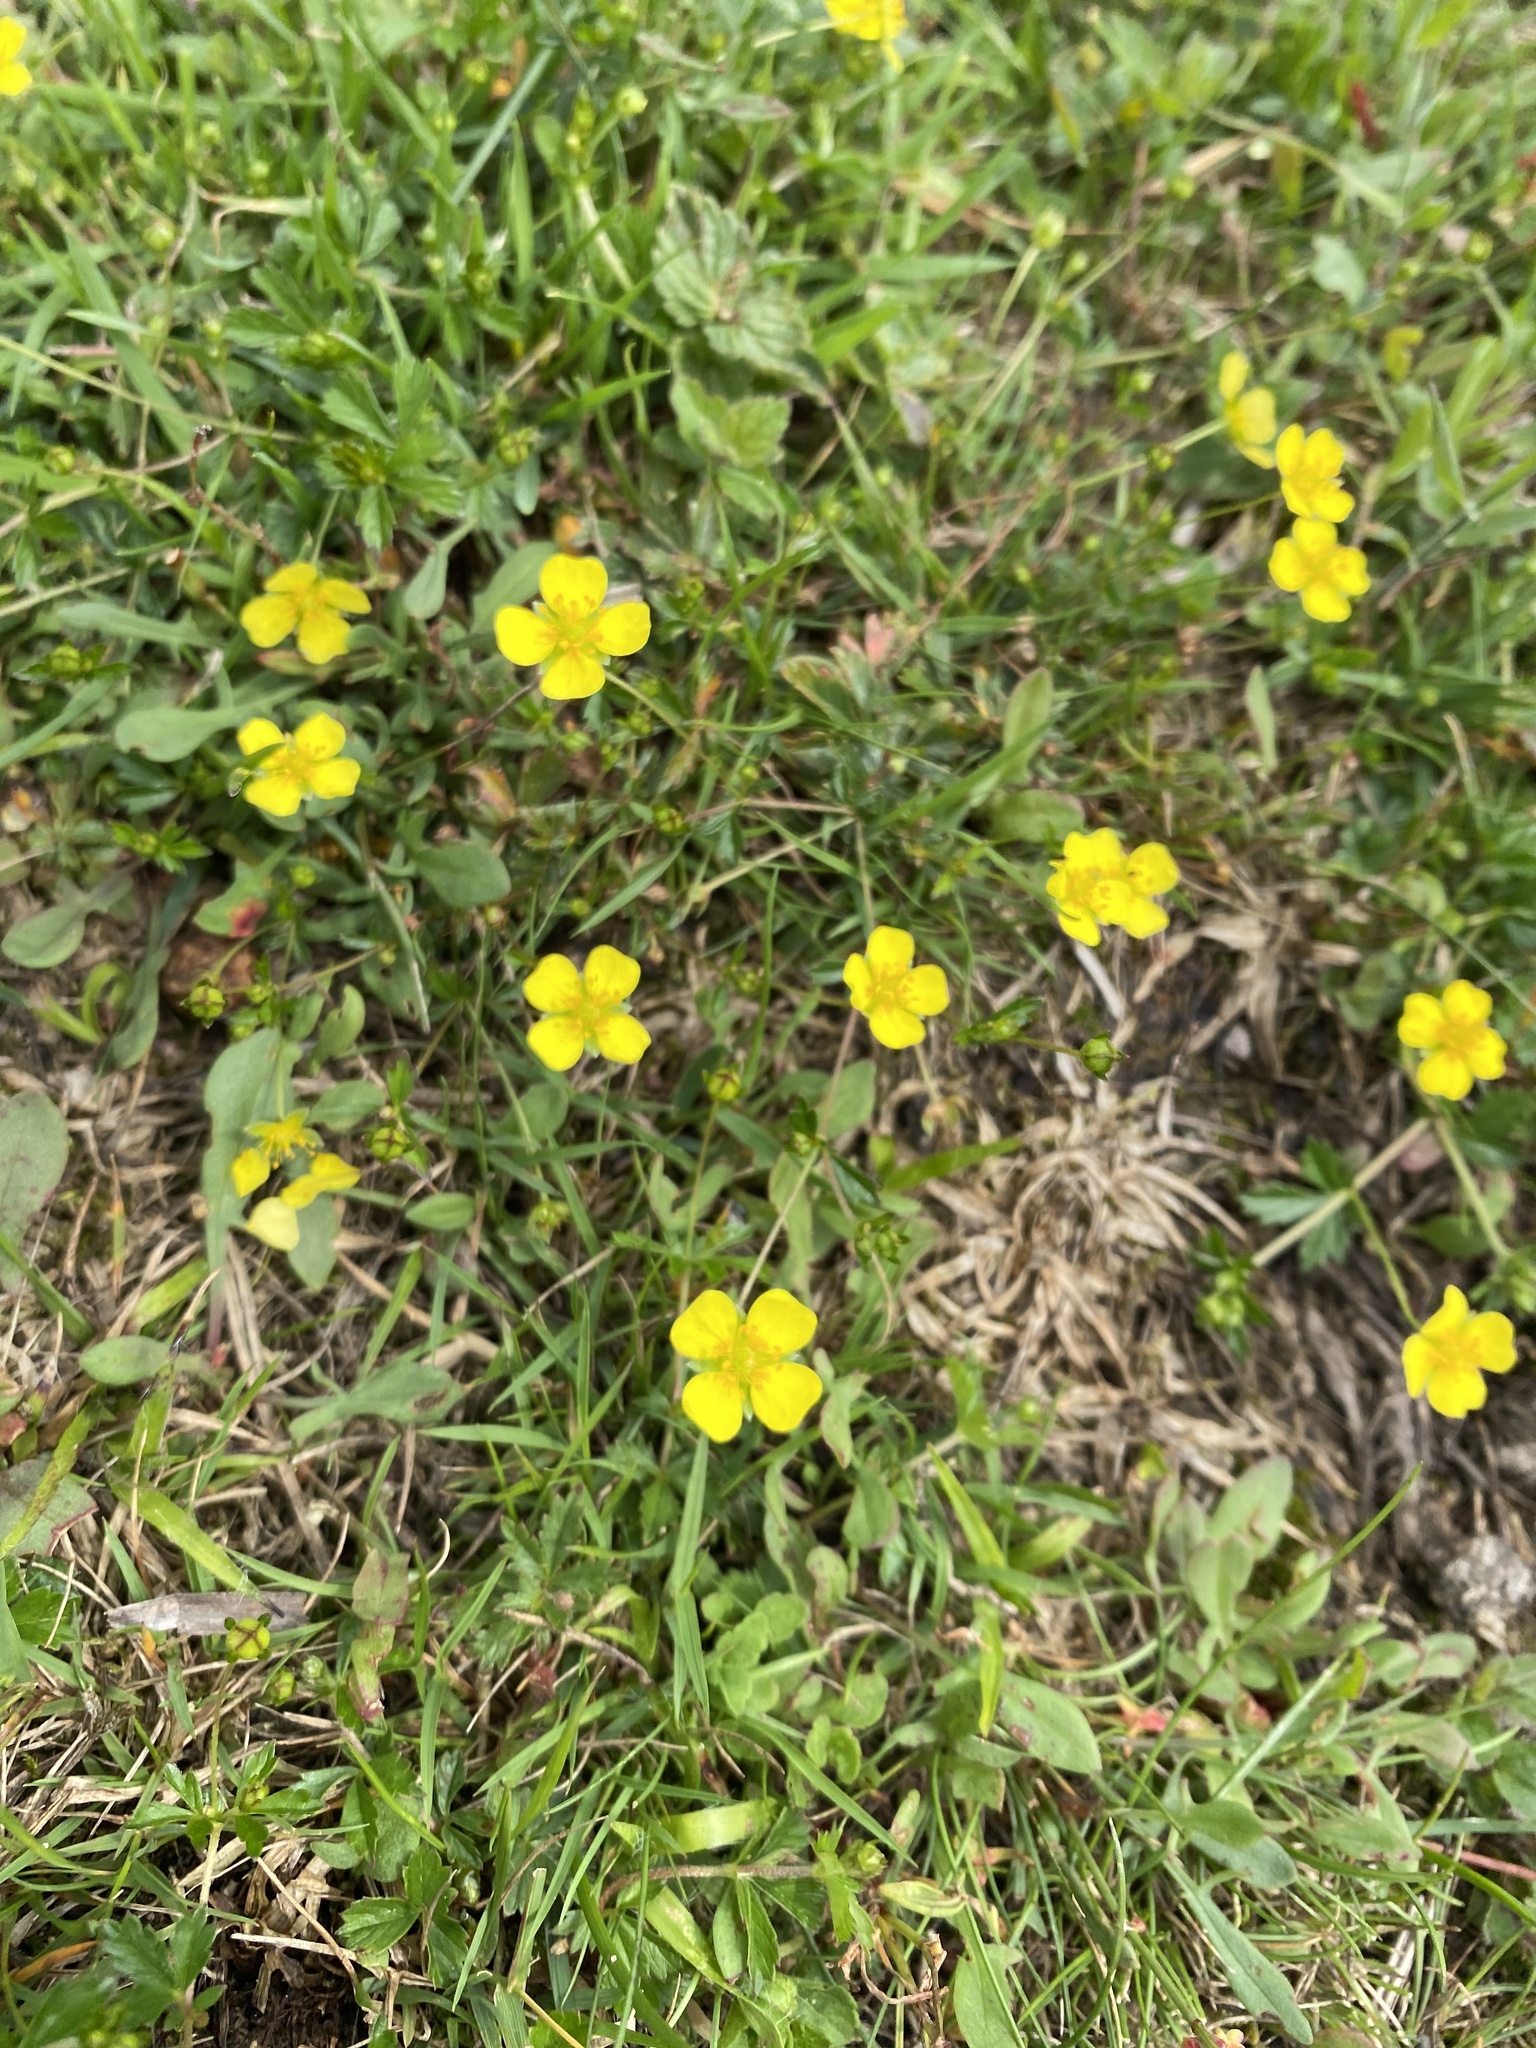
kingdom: Plantae
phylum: Tracheophyta
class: Magnoliopsida
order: Rosales
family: Rosaceae
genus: Potentilla
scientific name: Potentilla erecta
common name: Tormentil
